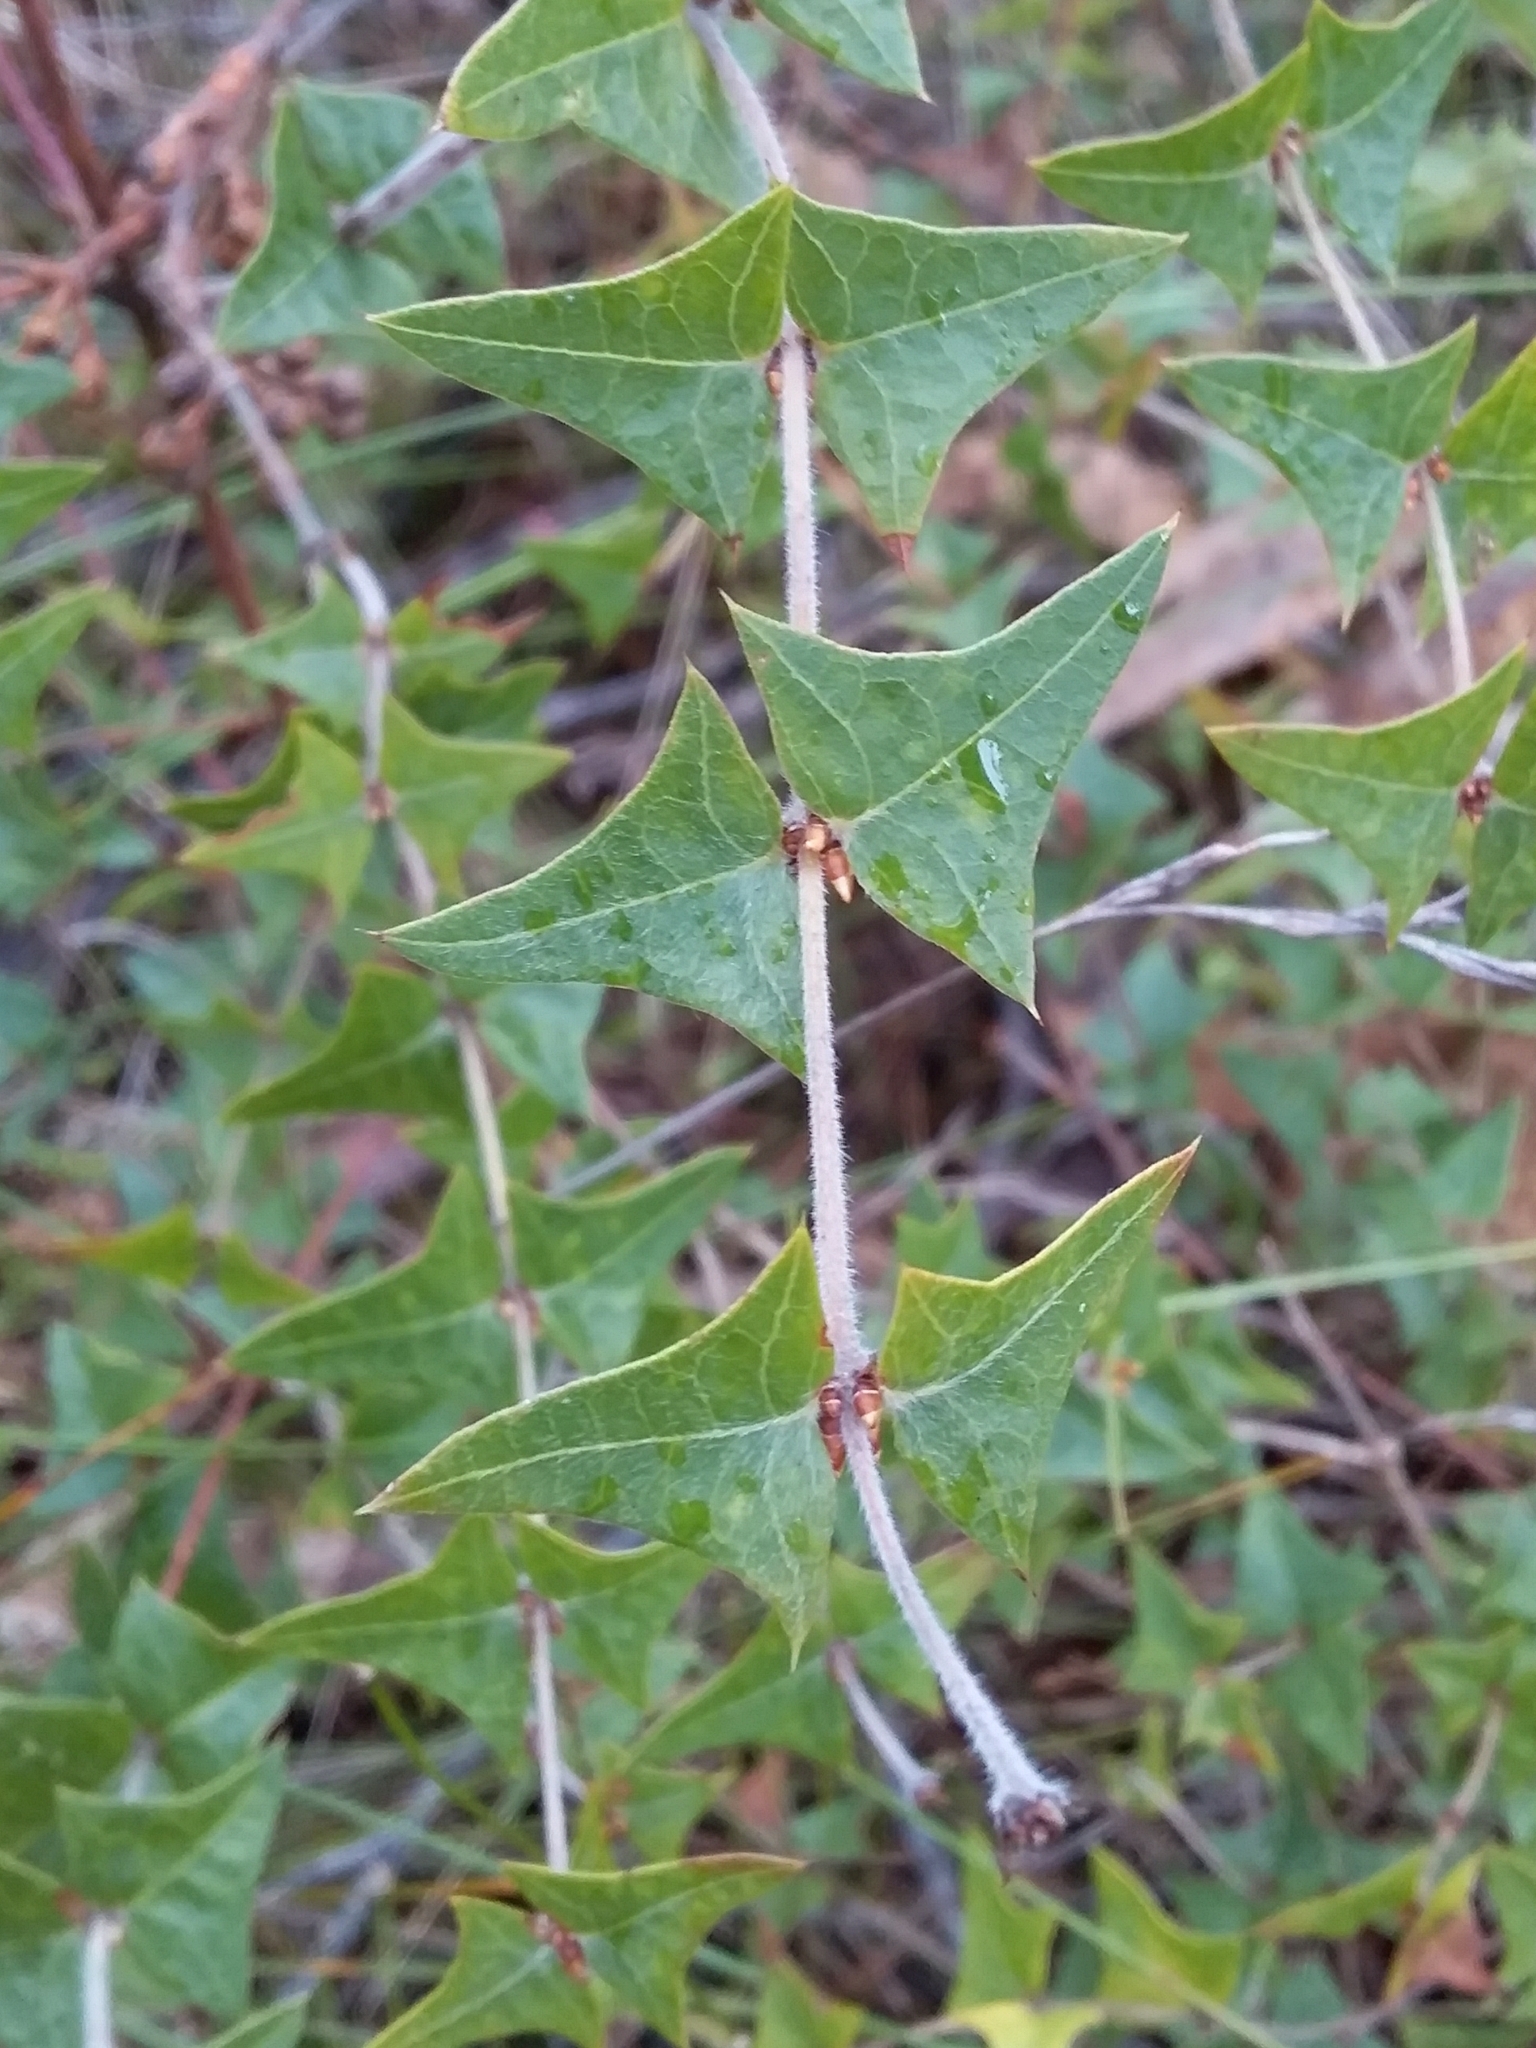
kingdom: Plantae
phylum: Tracheophyta
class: Magnoliopsida
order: Fabales
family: Fabaceae
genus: Platylobium
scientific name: Platylobium obtusangulum
